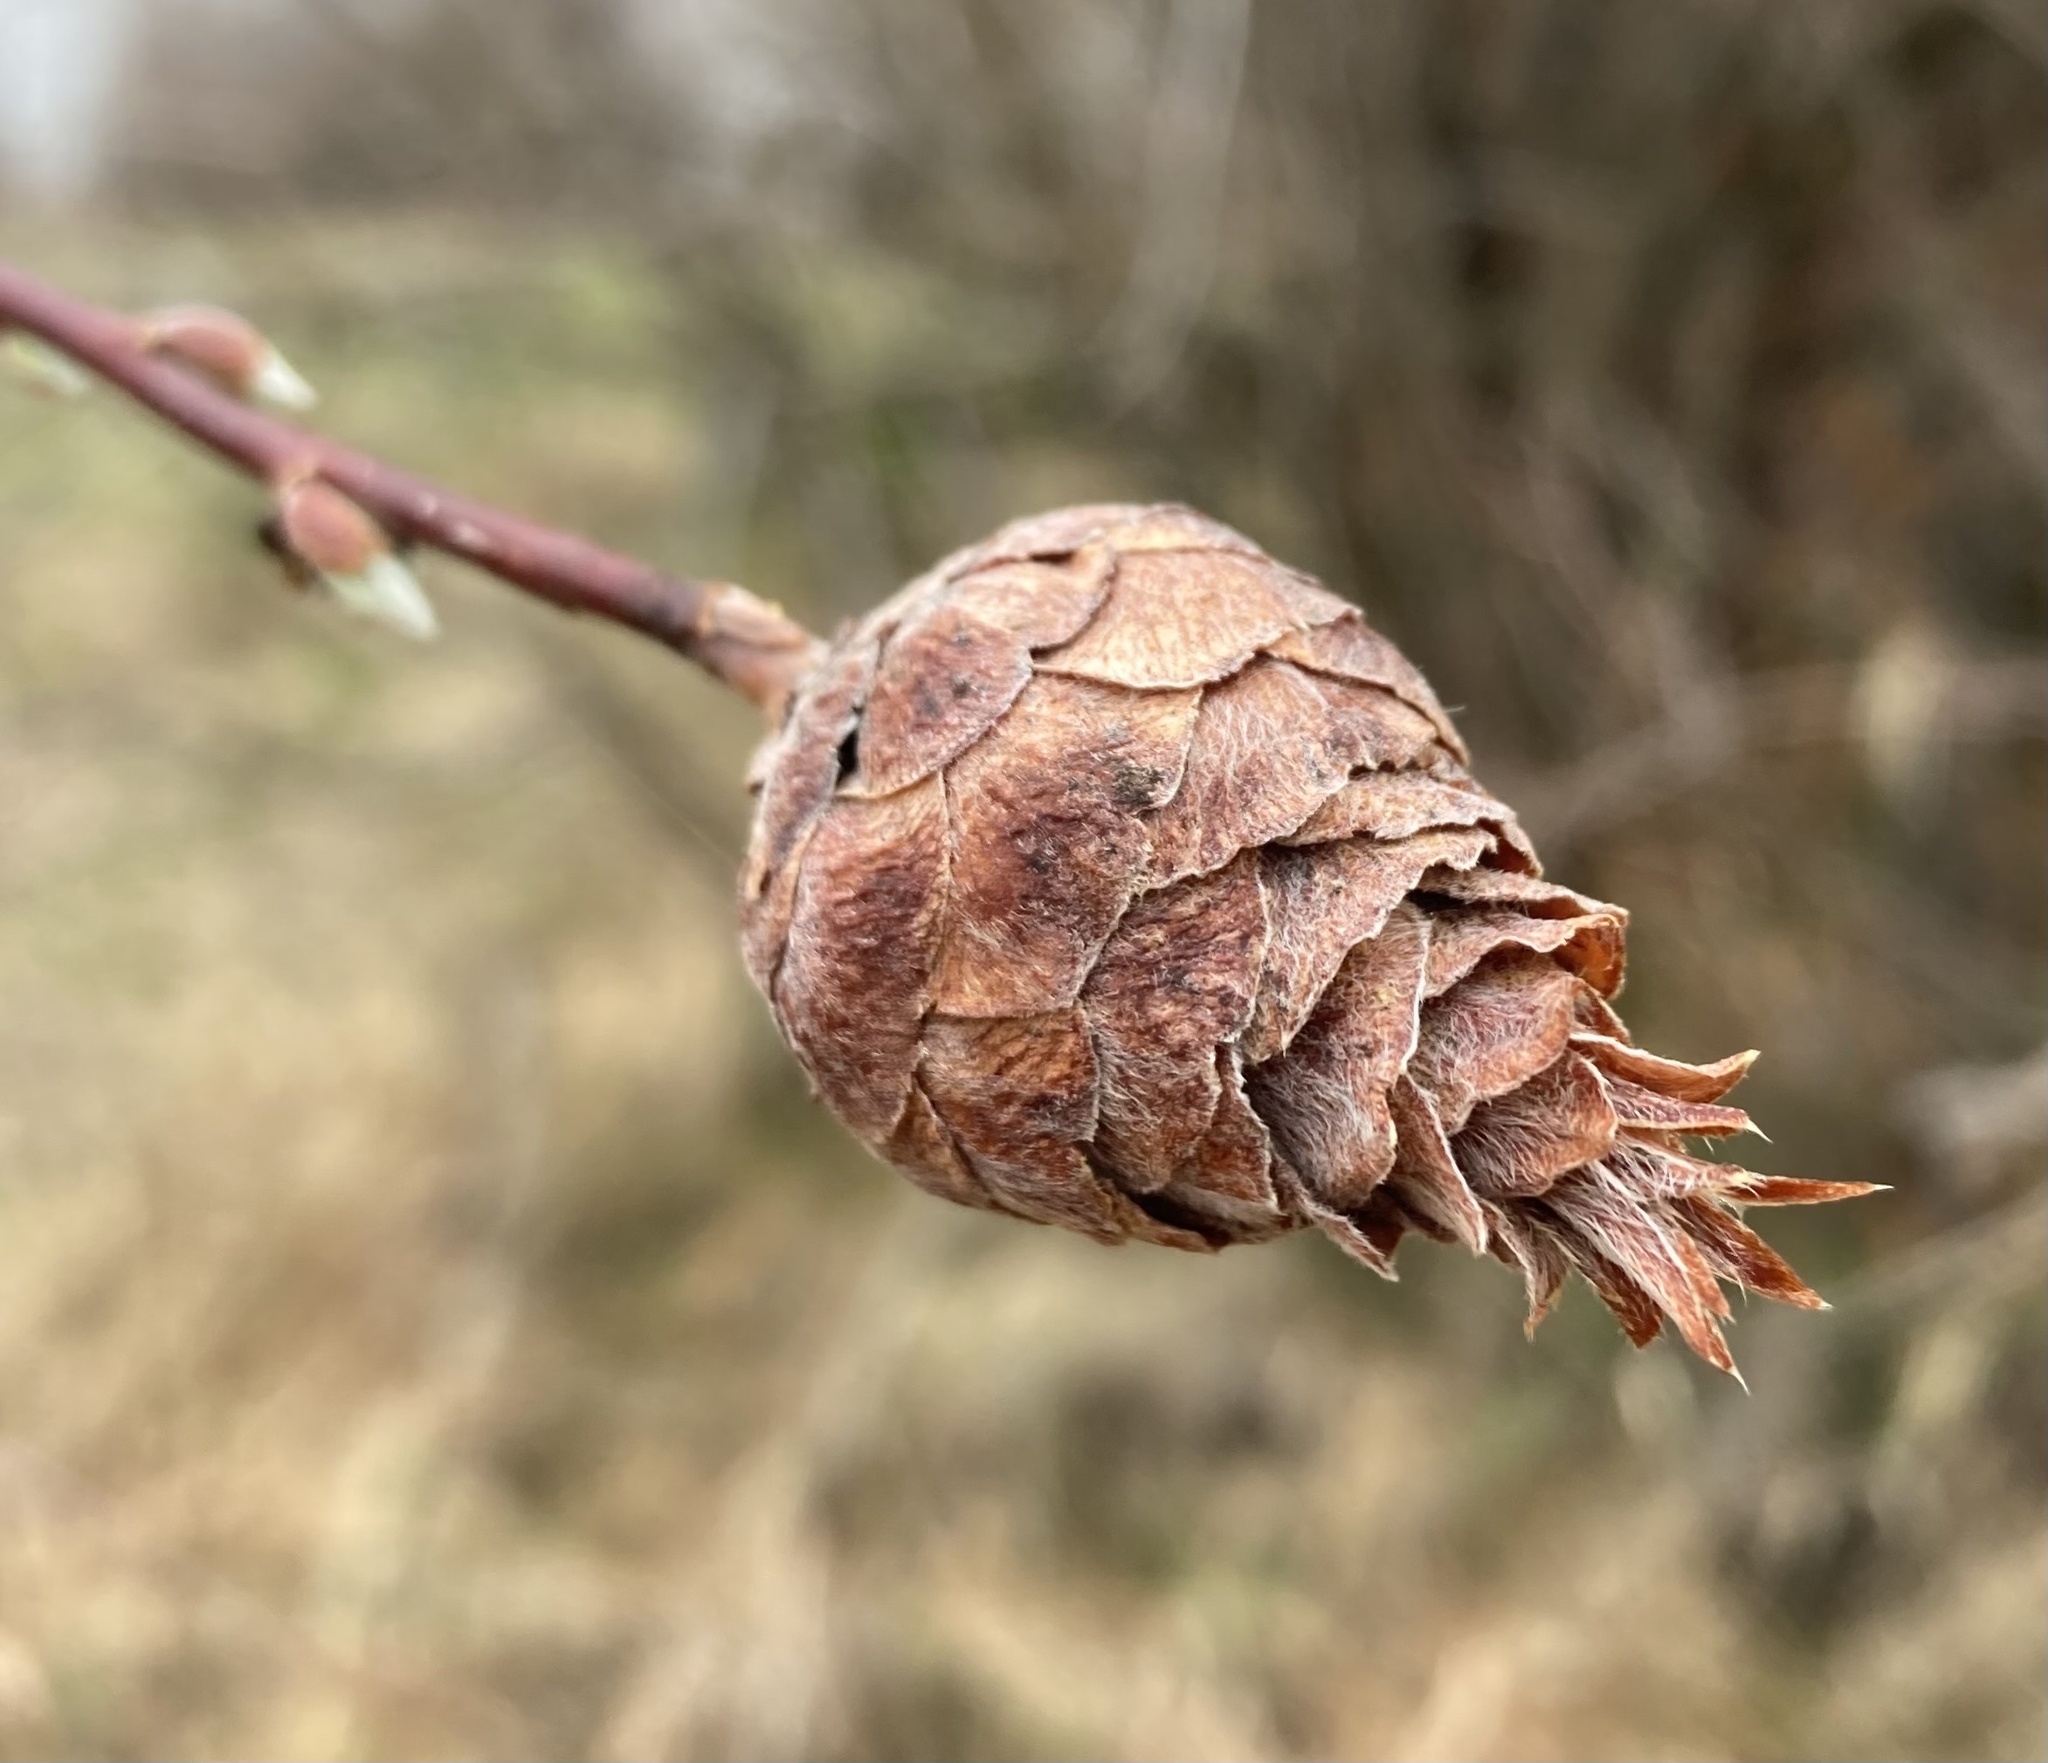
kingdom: Animalia
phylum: Arthropoda
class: Insecta
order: Diptera
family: Cecidomyiidae
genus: Rabdophaga
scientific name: Rabdophaga strobiloides
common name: Willow pinecone gall midge
